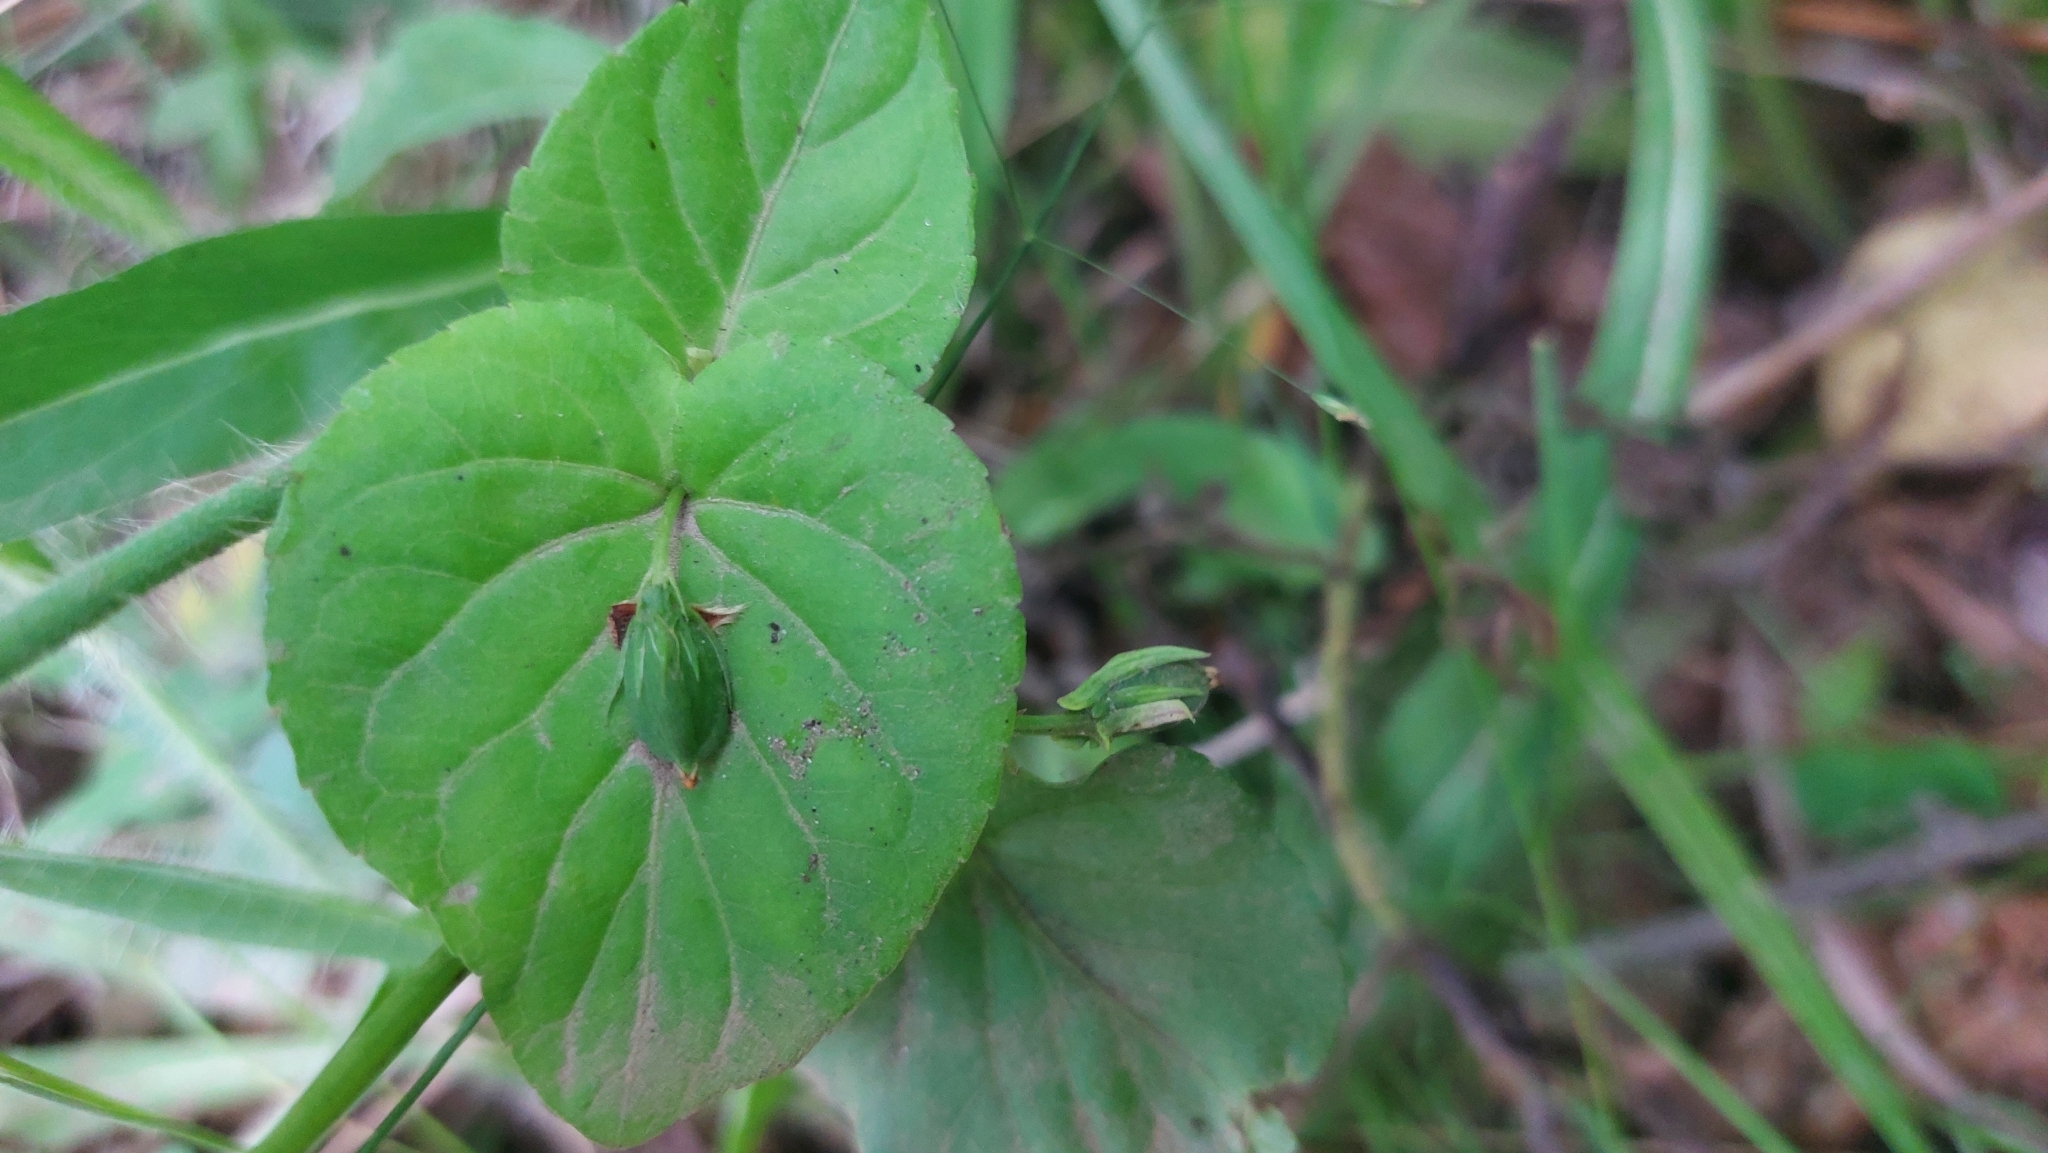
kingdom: Plantae
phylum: Tracheophyta
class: Magnoliopsida
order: Malpighiales
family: Violaceae
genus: Viola
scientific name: Viola sacchalinensis
